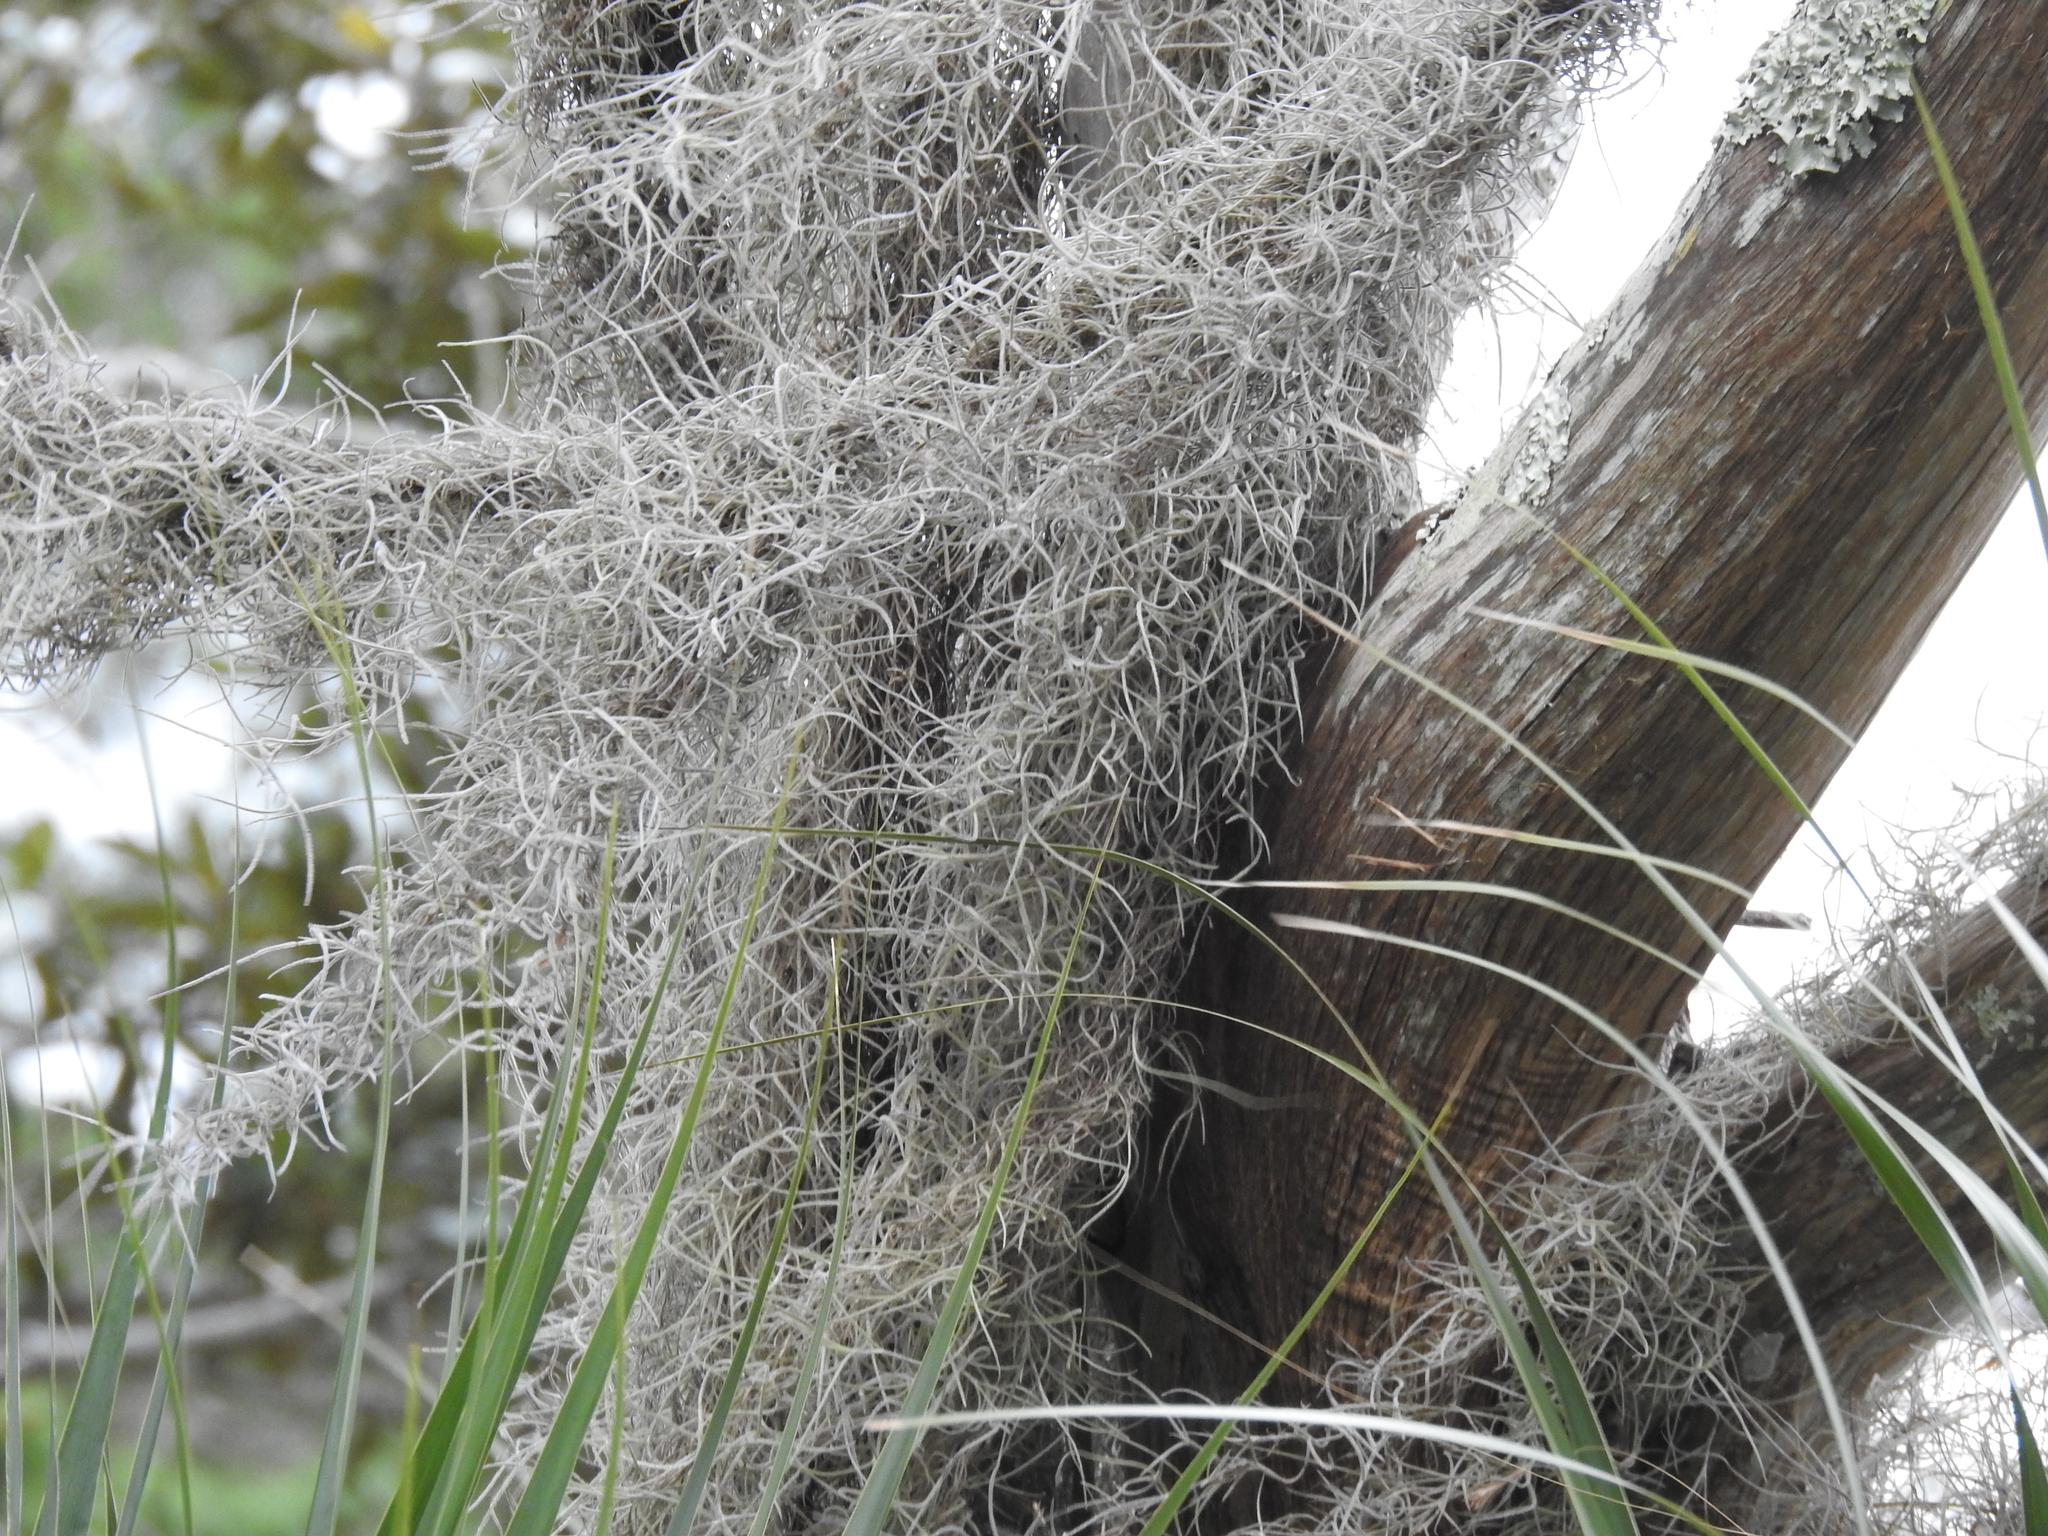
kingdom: Plantae
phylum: Tracheophyta
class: Liliopsida
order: Poales
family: Bromeliaceae
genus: Tillandsia
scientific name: Tillandsia usneoides
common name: Spanish moss
